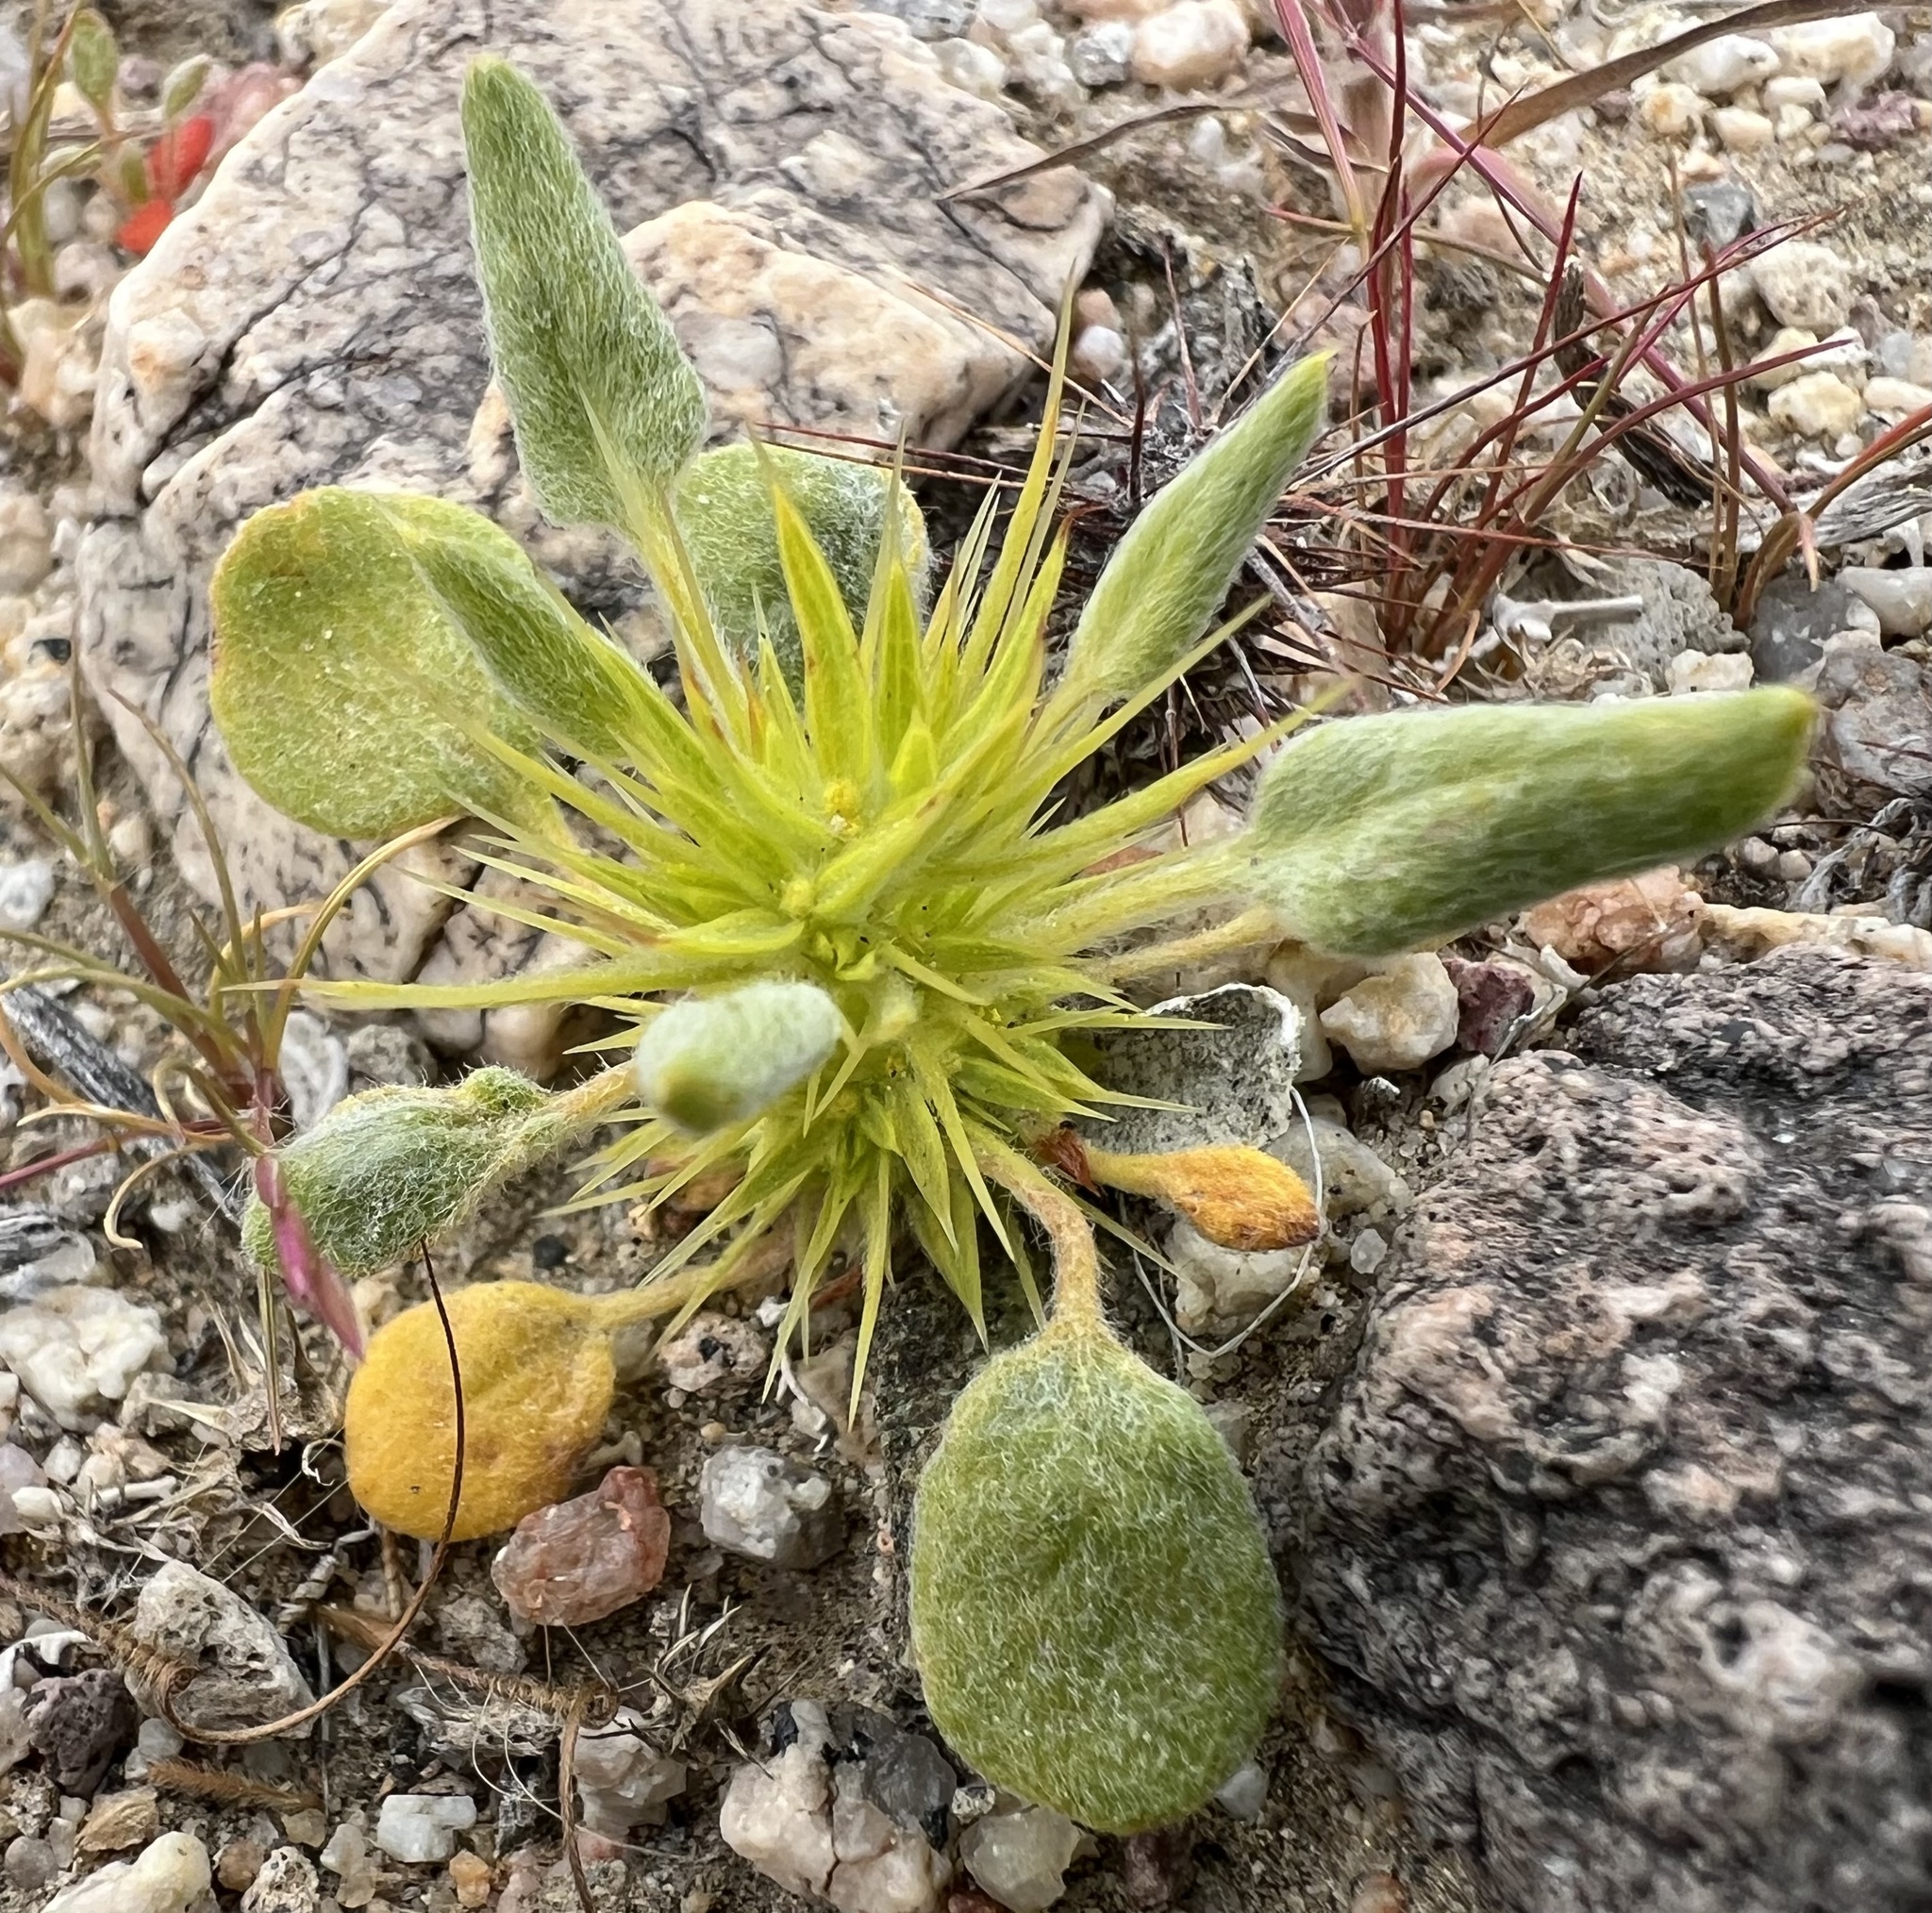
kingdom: Plantae
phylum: Tracheophyta
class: Magnoliopsida
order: Caryophyllales
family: Polygonaceae
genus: Chorizanthe
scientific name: Chorizanthe rigida
